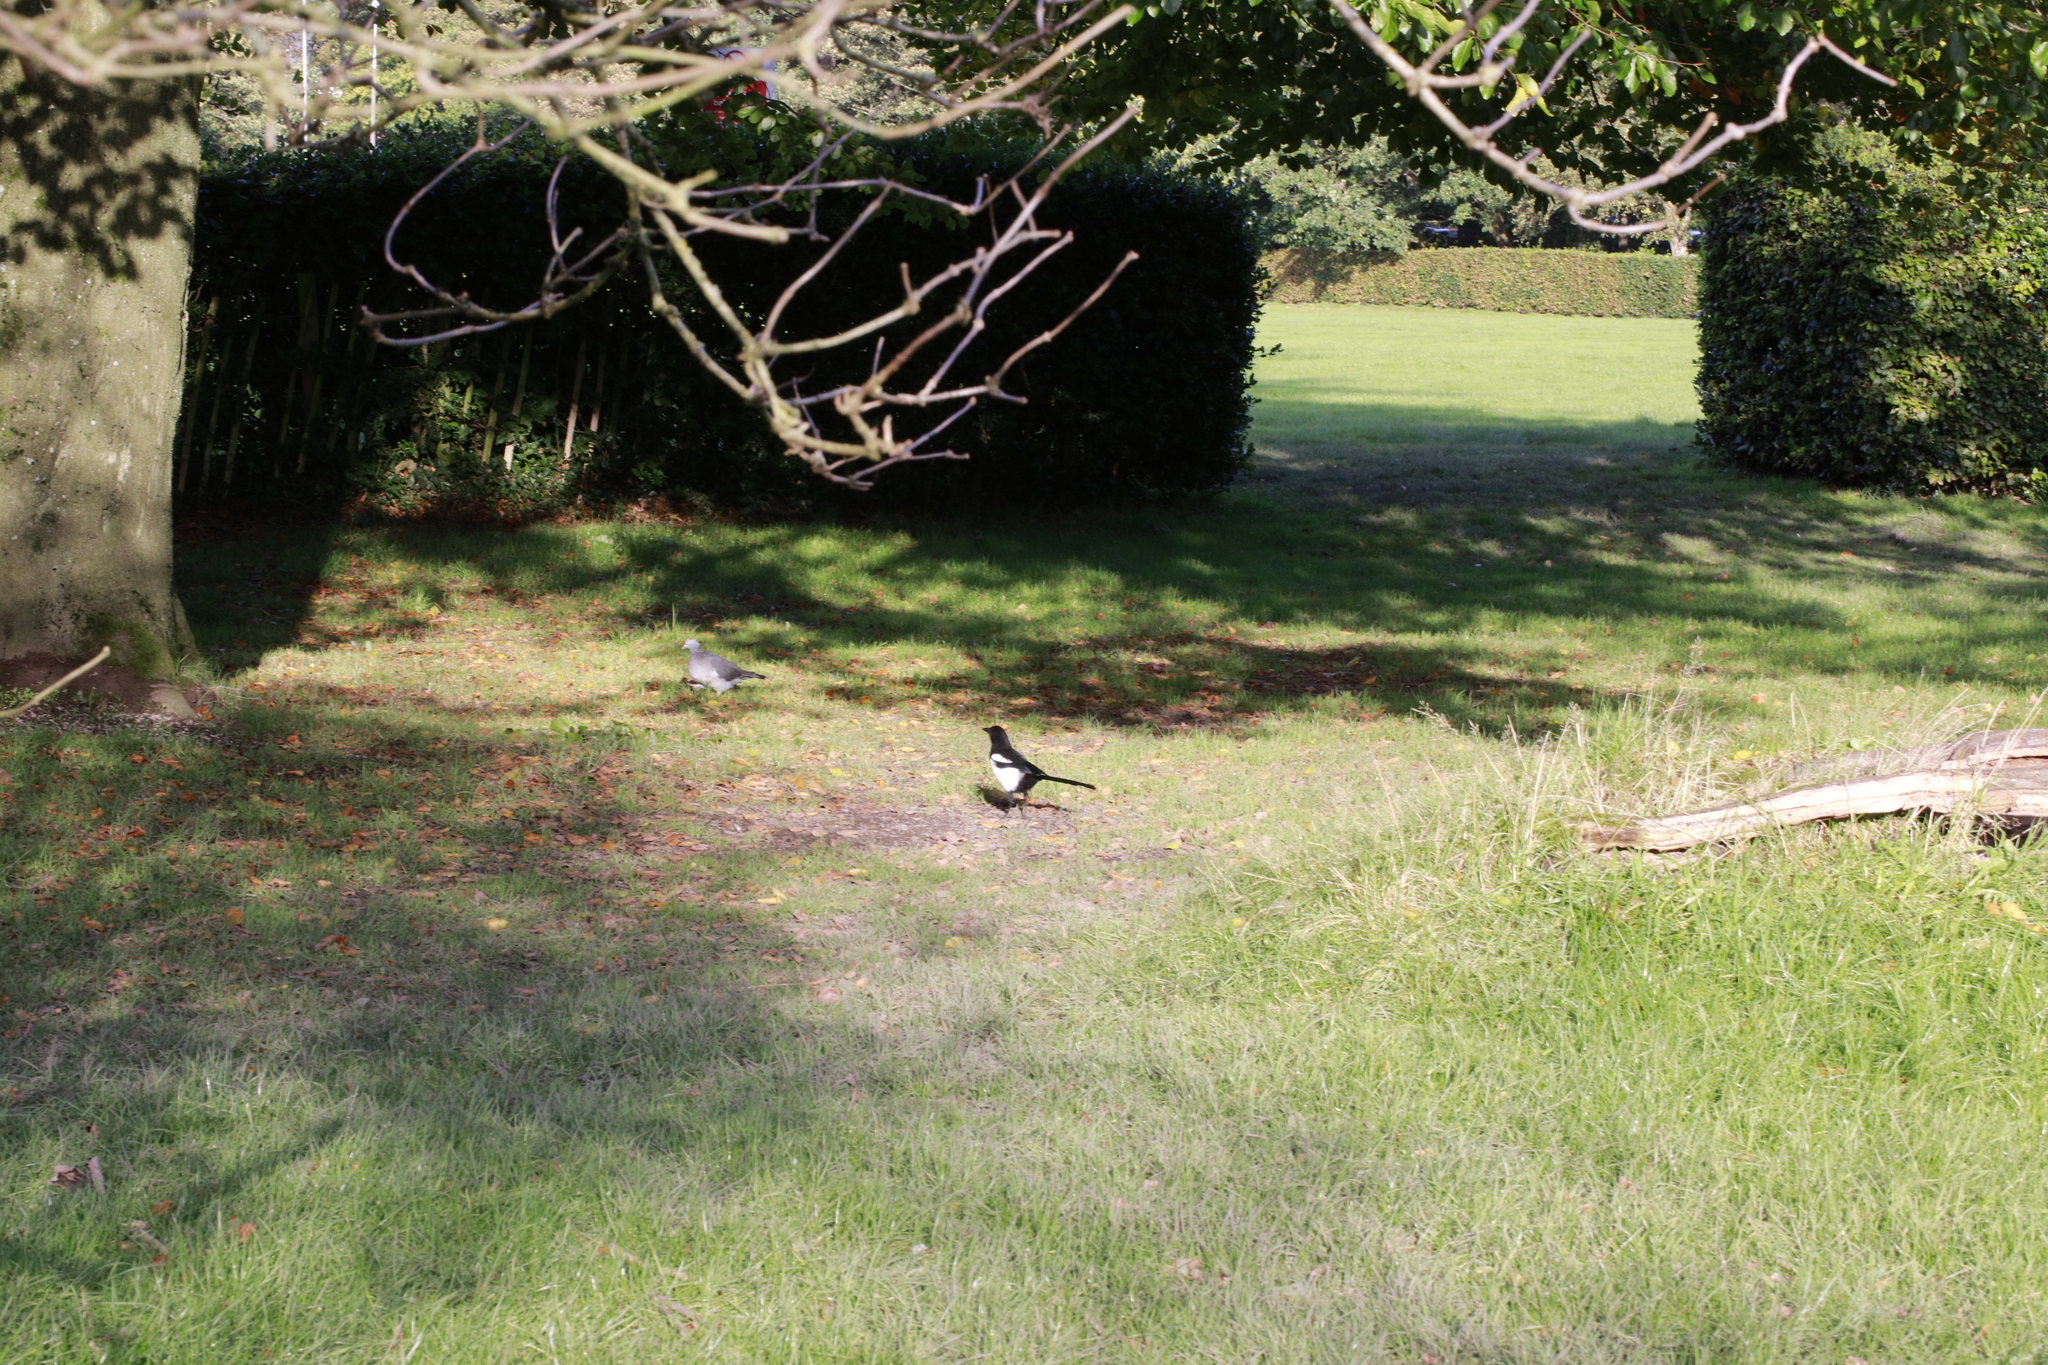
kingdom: Animalia
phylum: Chordata
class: Aves
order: Passeriformes
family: Corvidae
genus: Pica
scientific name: Pica pica
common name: Eurasian magpie
